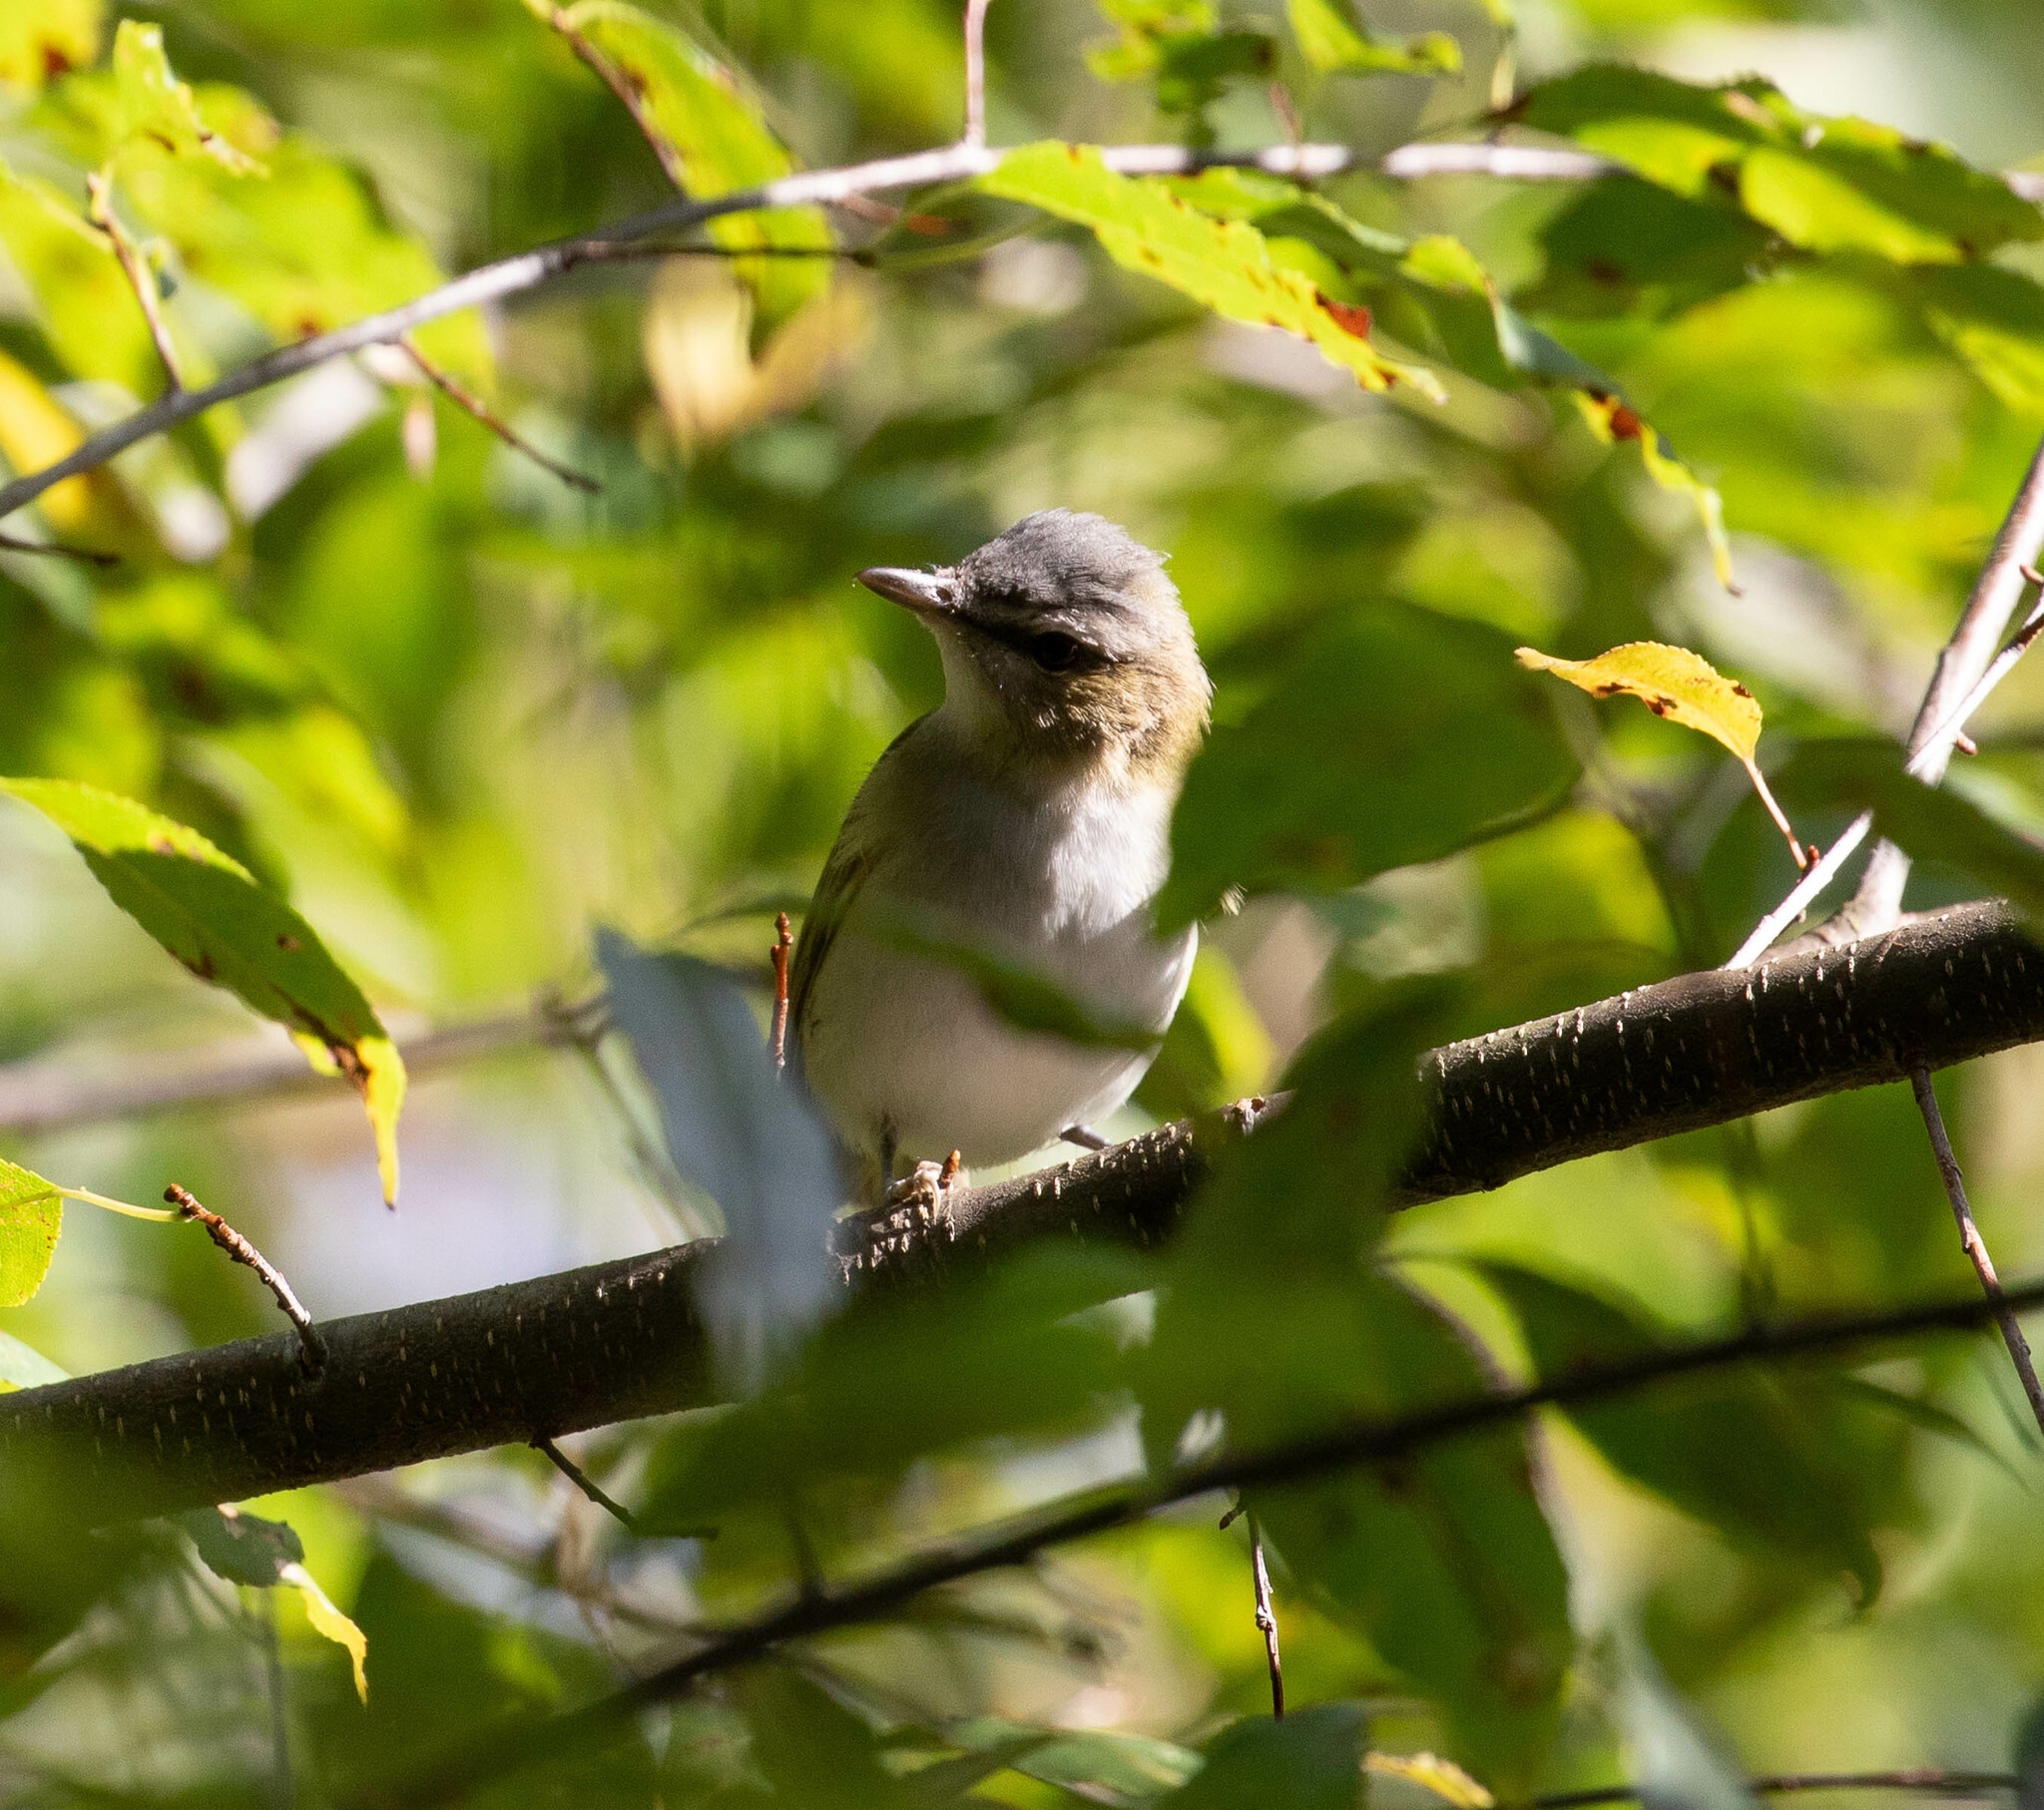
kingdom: Animalia
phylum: Chordata
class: Aves
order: Passeriformes
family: Vireonidae
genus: Vireo
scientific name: Vireo olivaceus
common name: Red-eyed vireo
